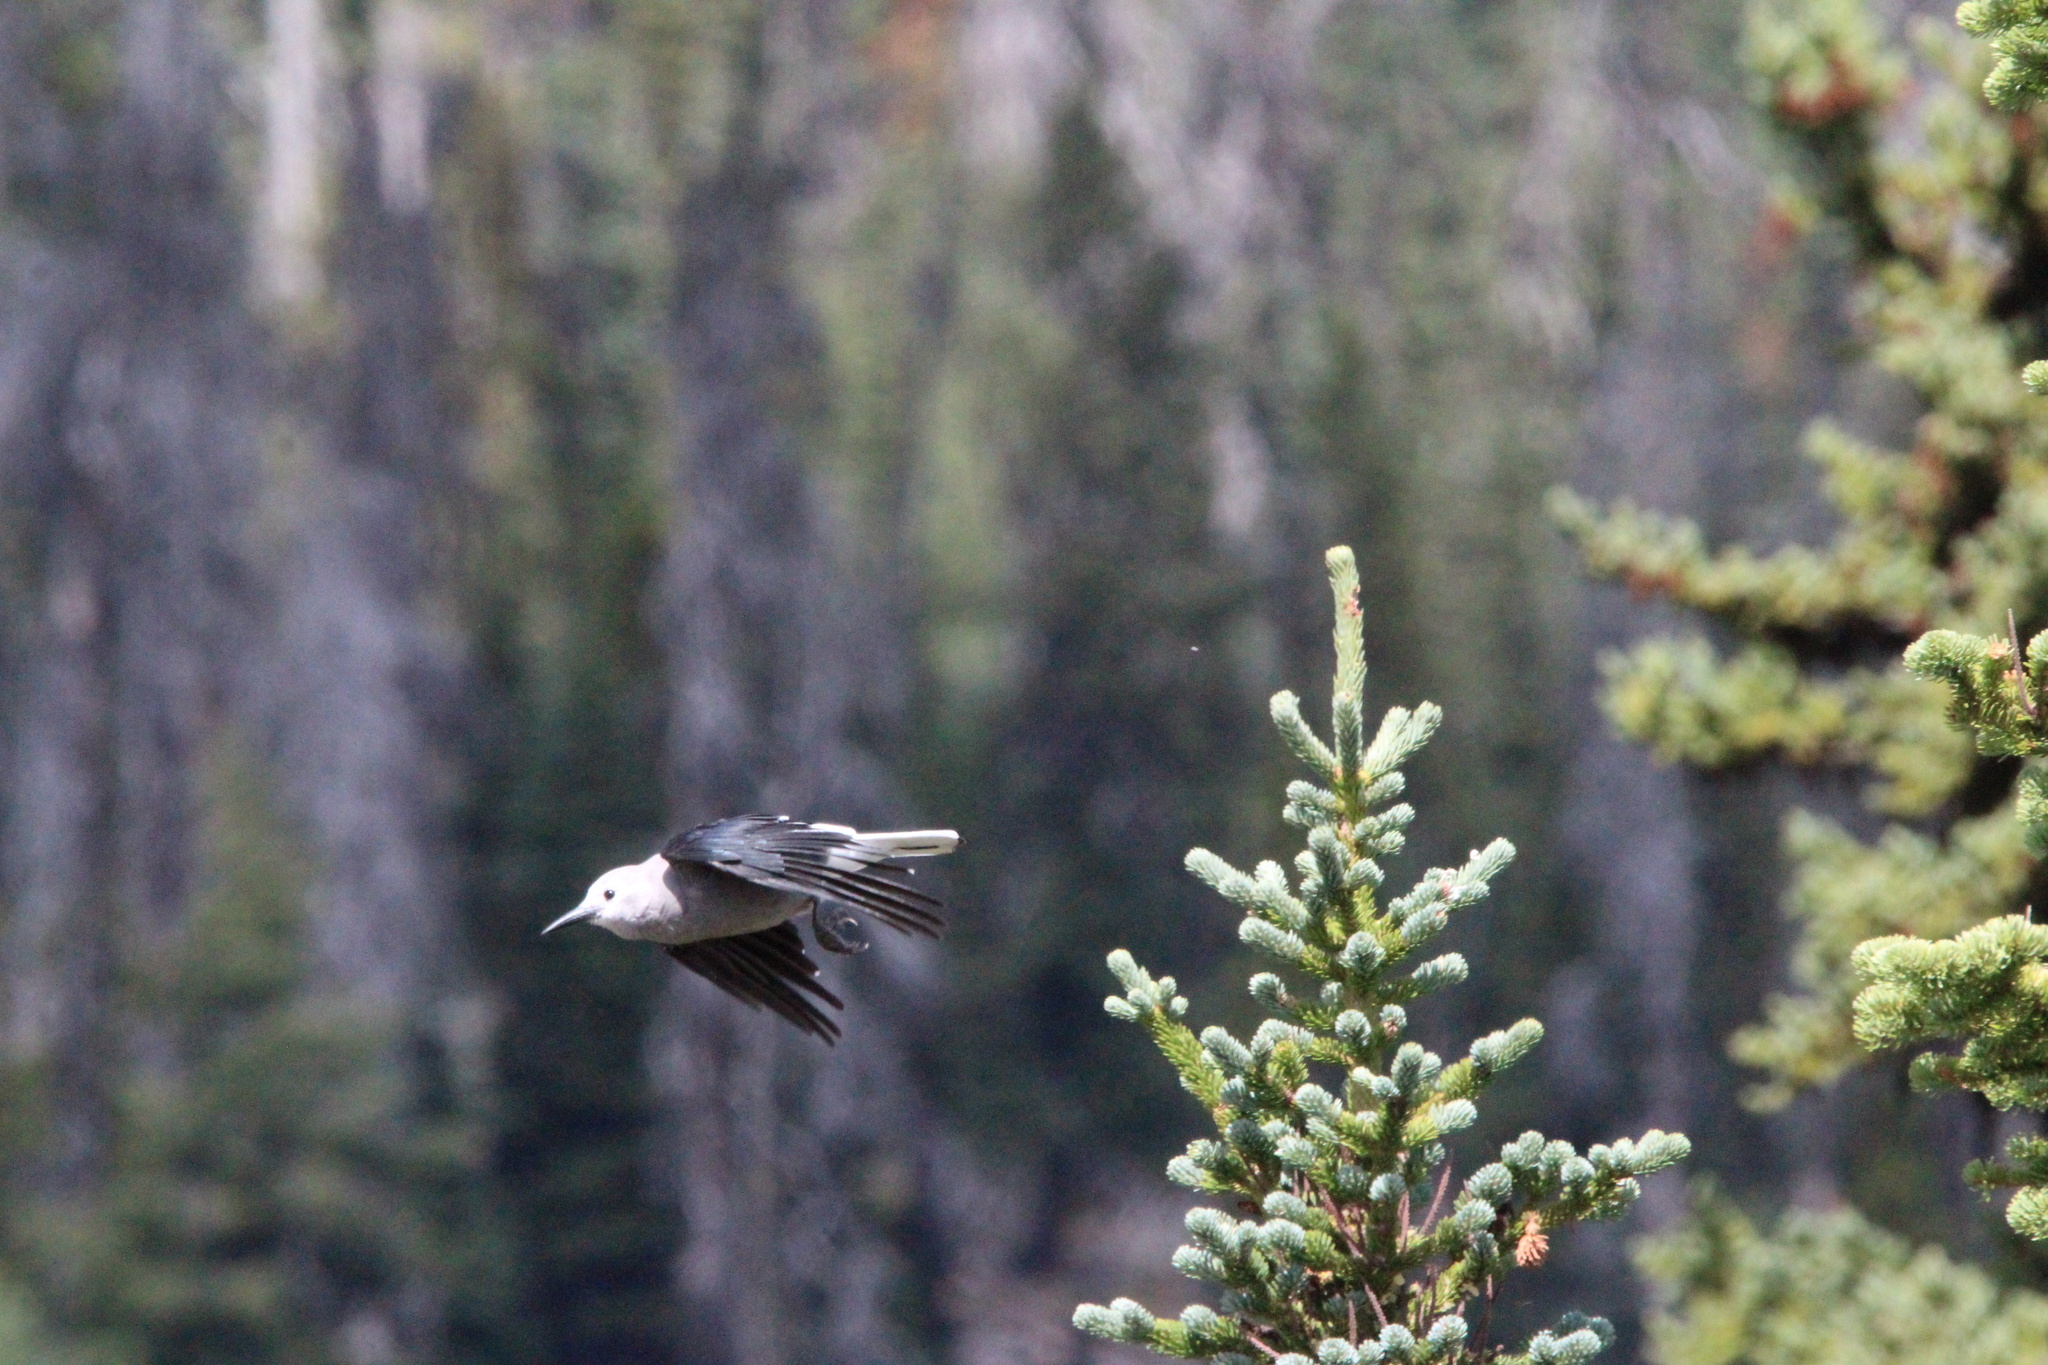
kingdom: Animalia
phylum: Chordata
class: Aves
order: Passeriformes
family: Corvidae
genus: Nucifraga
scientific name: Nucifraga columbiana
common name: Clark's nutcracker
